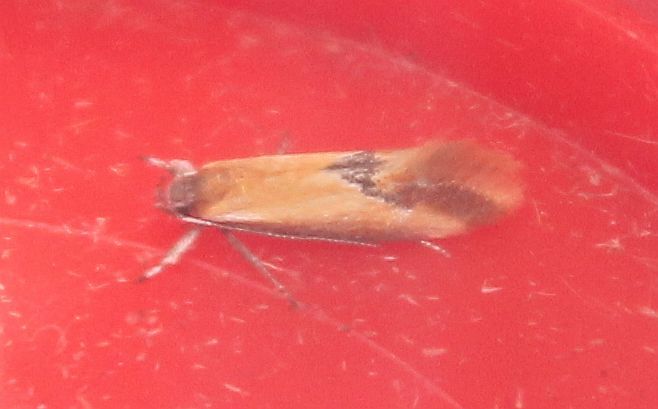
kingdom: Animalia
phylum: Arthropoda
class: Insecta
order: Lepidoptera
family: Oecophoridae
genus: Batia
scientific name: Batia lunaris
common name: Moth
